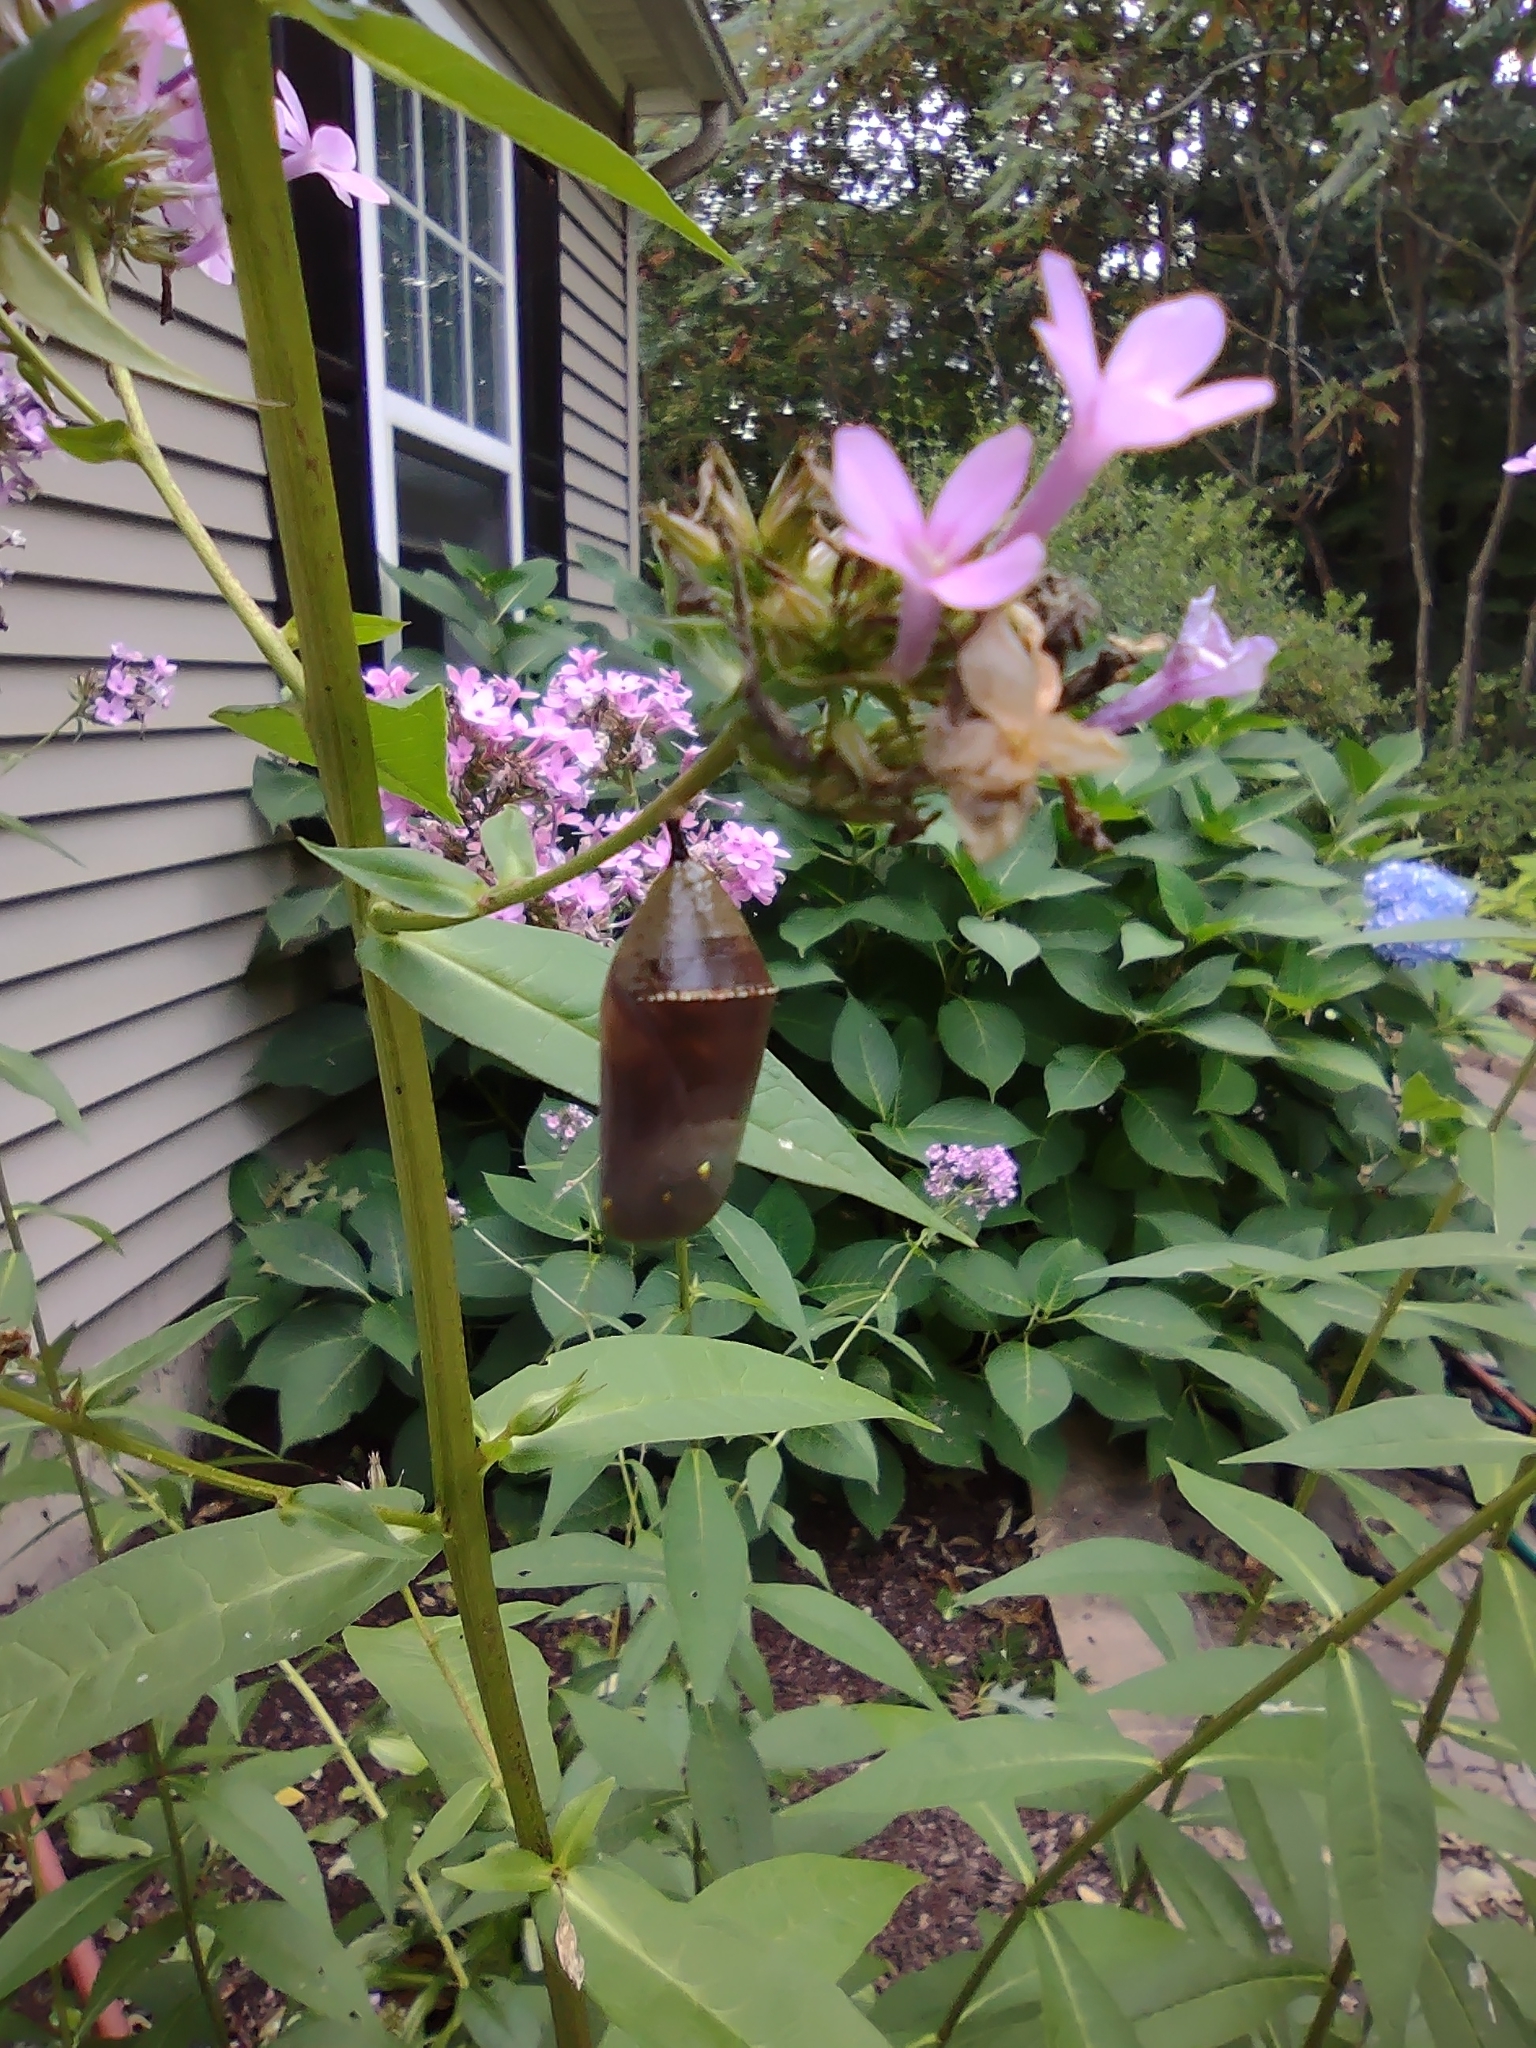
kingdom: Animalia
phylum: Arthropoda
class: Insecta
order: Lepidoptera
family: Nymphalidae
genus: Danaus
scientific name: Danaus plexippus
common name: Monarch
